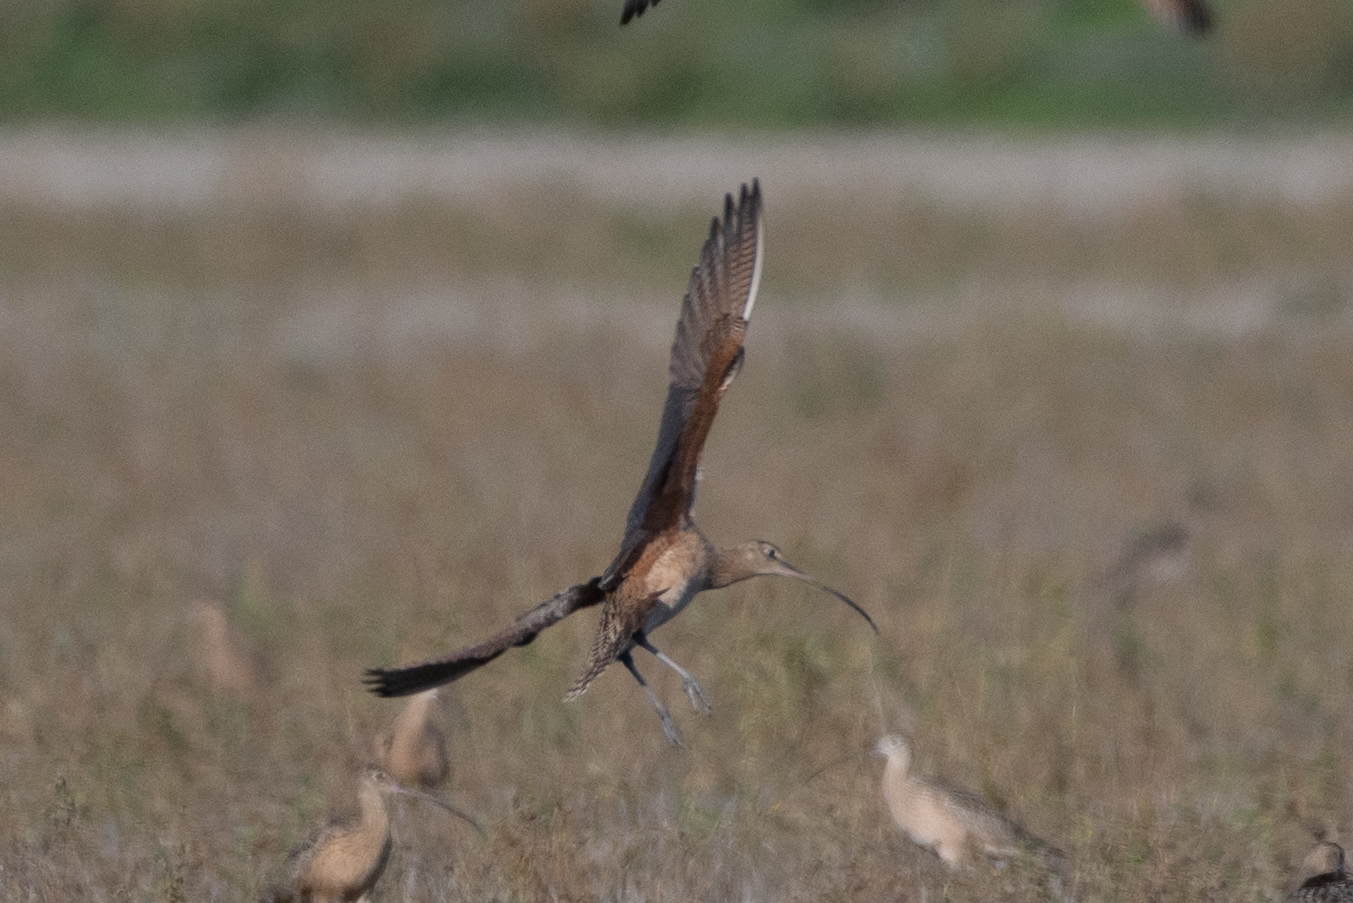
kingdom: Animalia
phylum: Chordata
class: Aves
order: Charadriiformes
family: Scolopacidae
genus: Numenius
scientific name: Numenius americanus
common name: Long-billed curlew
